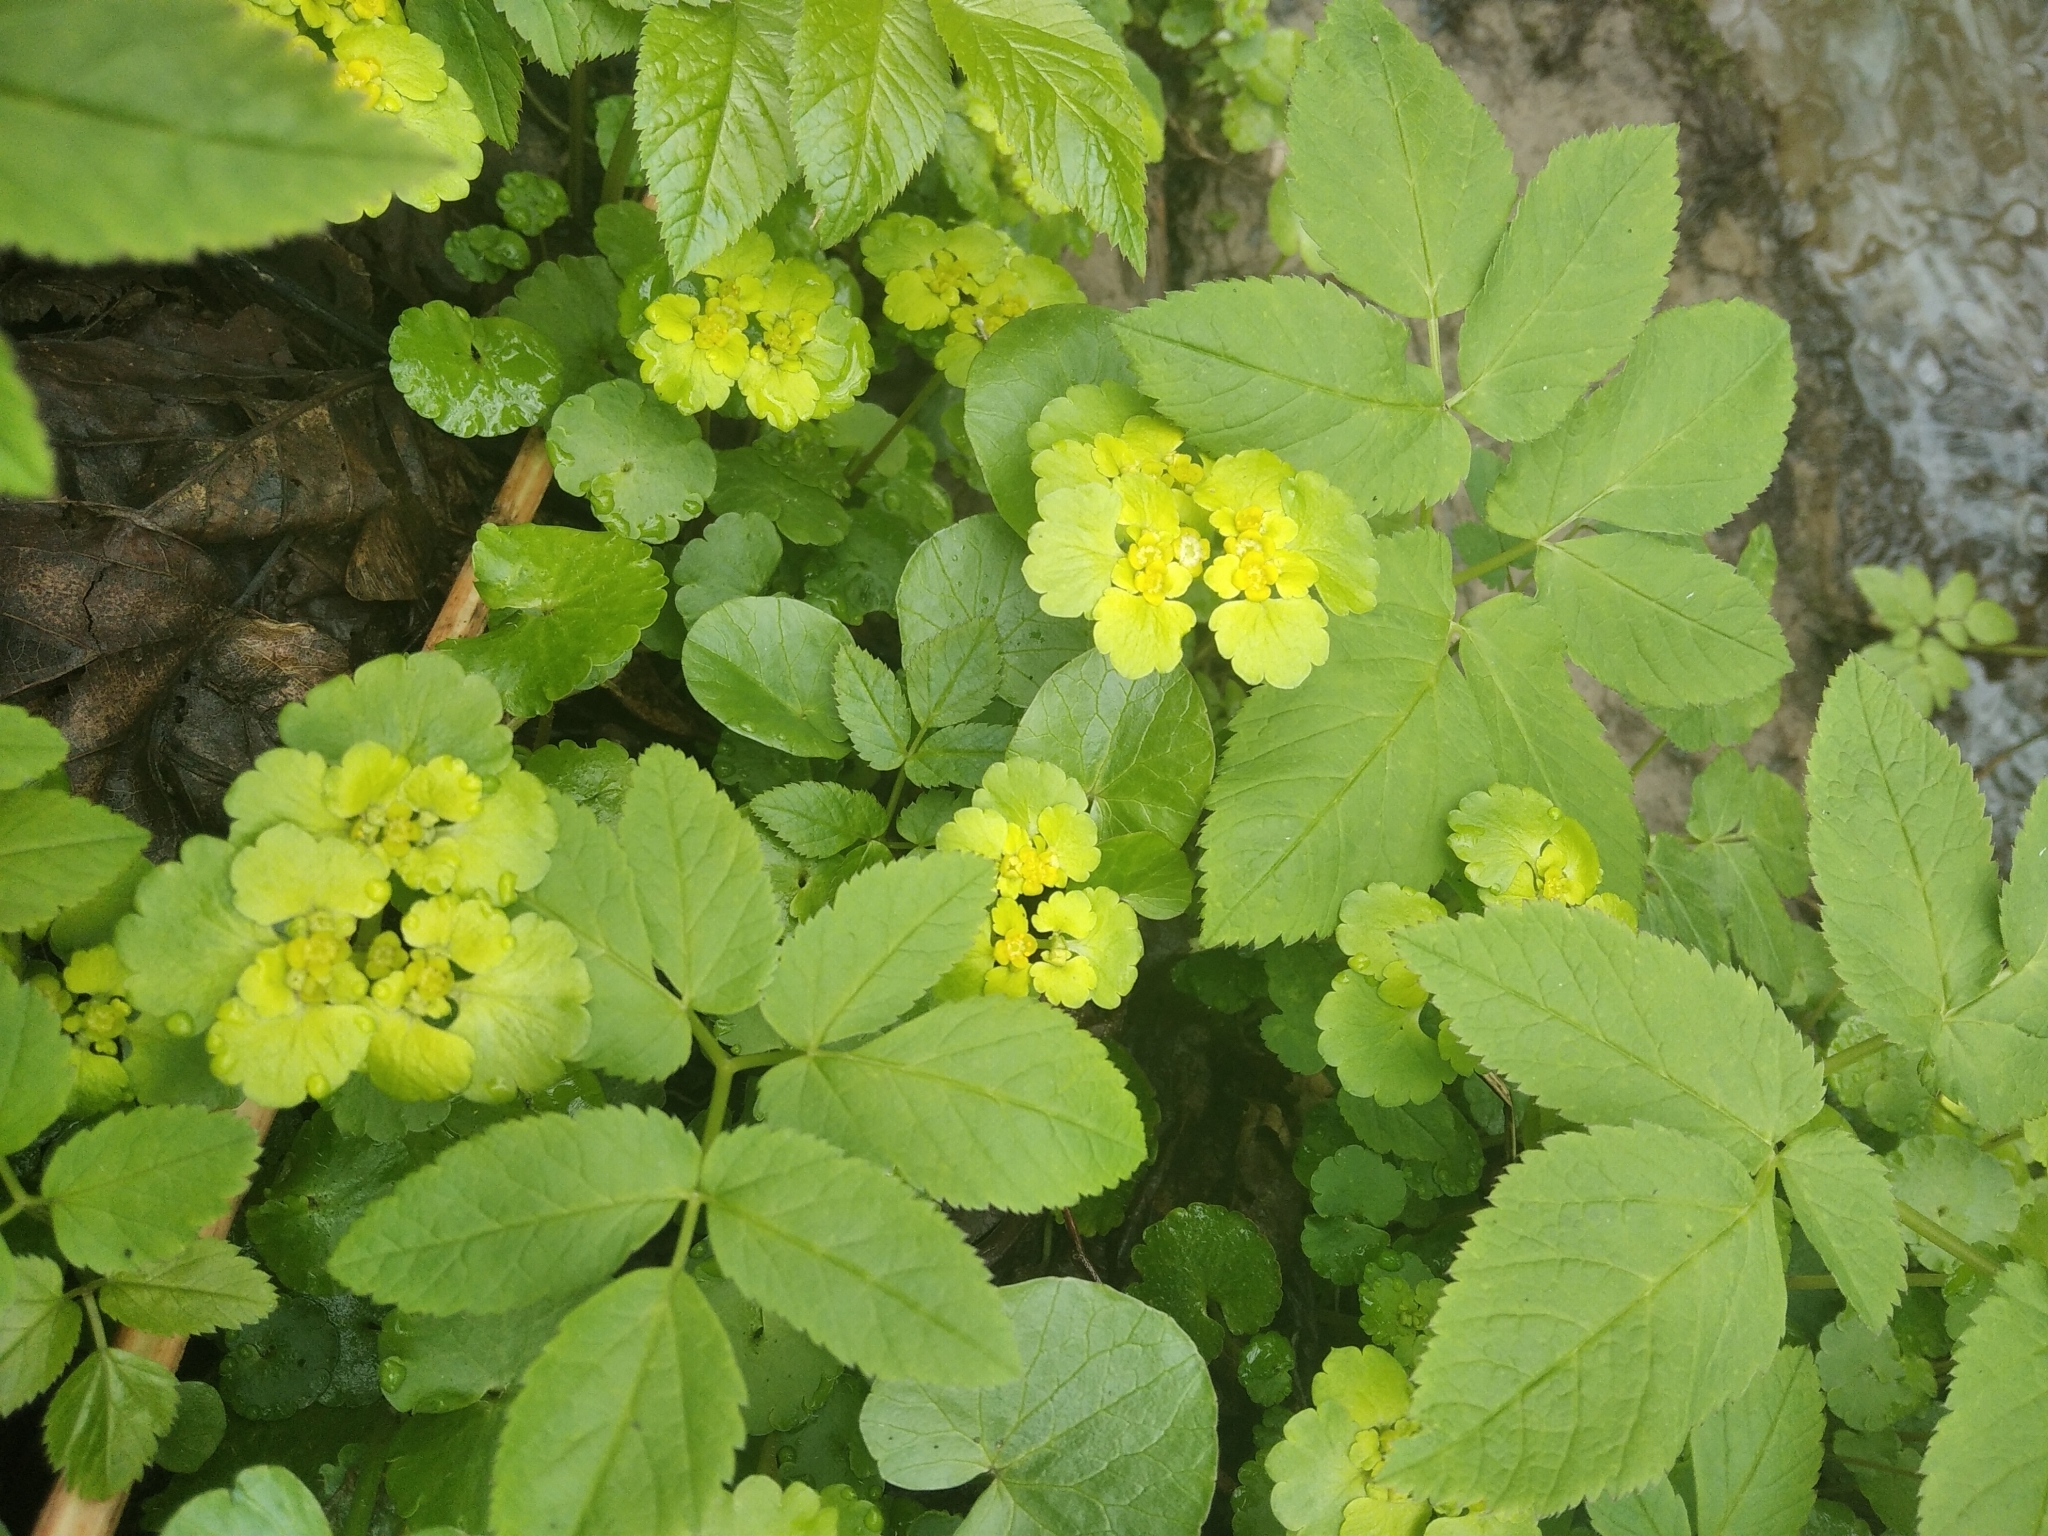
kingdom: Plantae
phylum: Tracheophyta
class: Magnoliopsida
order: Saxifragales
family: Saxifragaceae
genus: Chrysosplenium
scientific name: Chrysosplenium alternifolium
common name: Alternate-leaved golden-saxifrage
